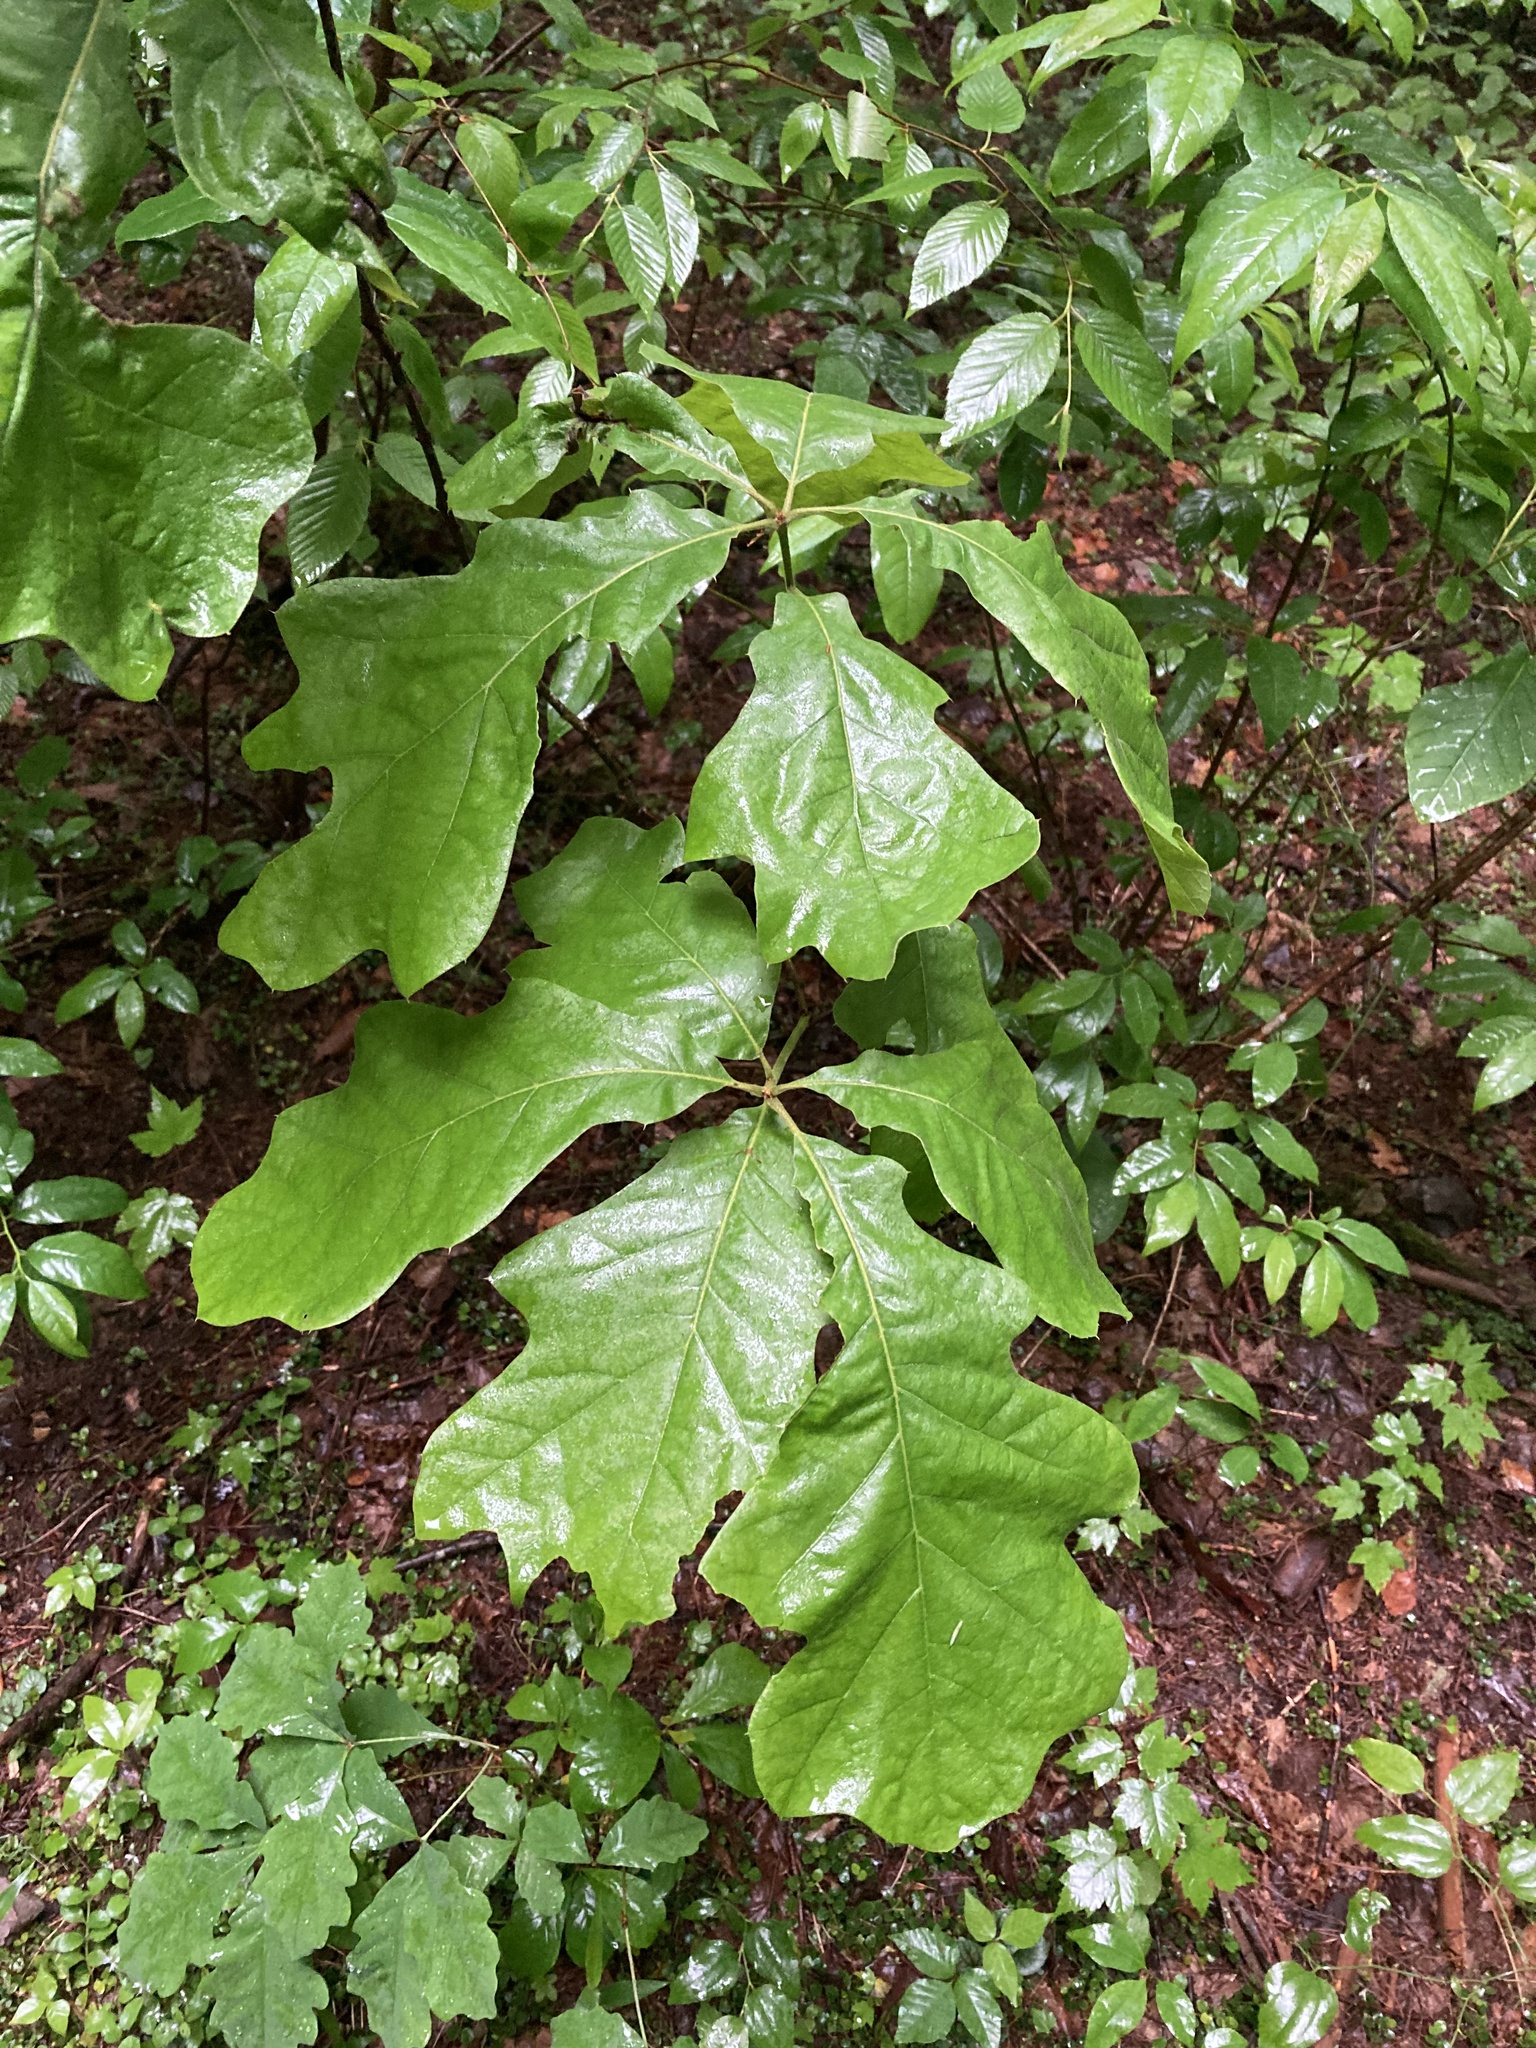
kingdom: Plantae
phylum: Tracheophyta
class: Magnoliopsida
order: Fagales
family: Fagaceae
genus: Quercus
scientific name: Quercus velutina
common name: Black oak
